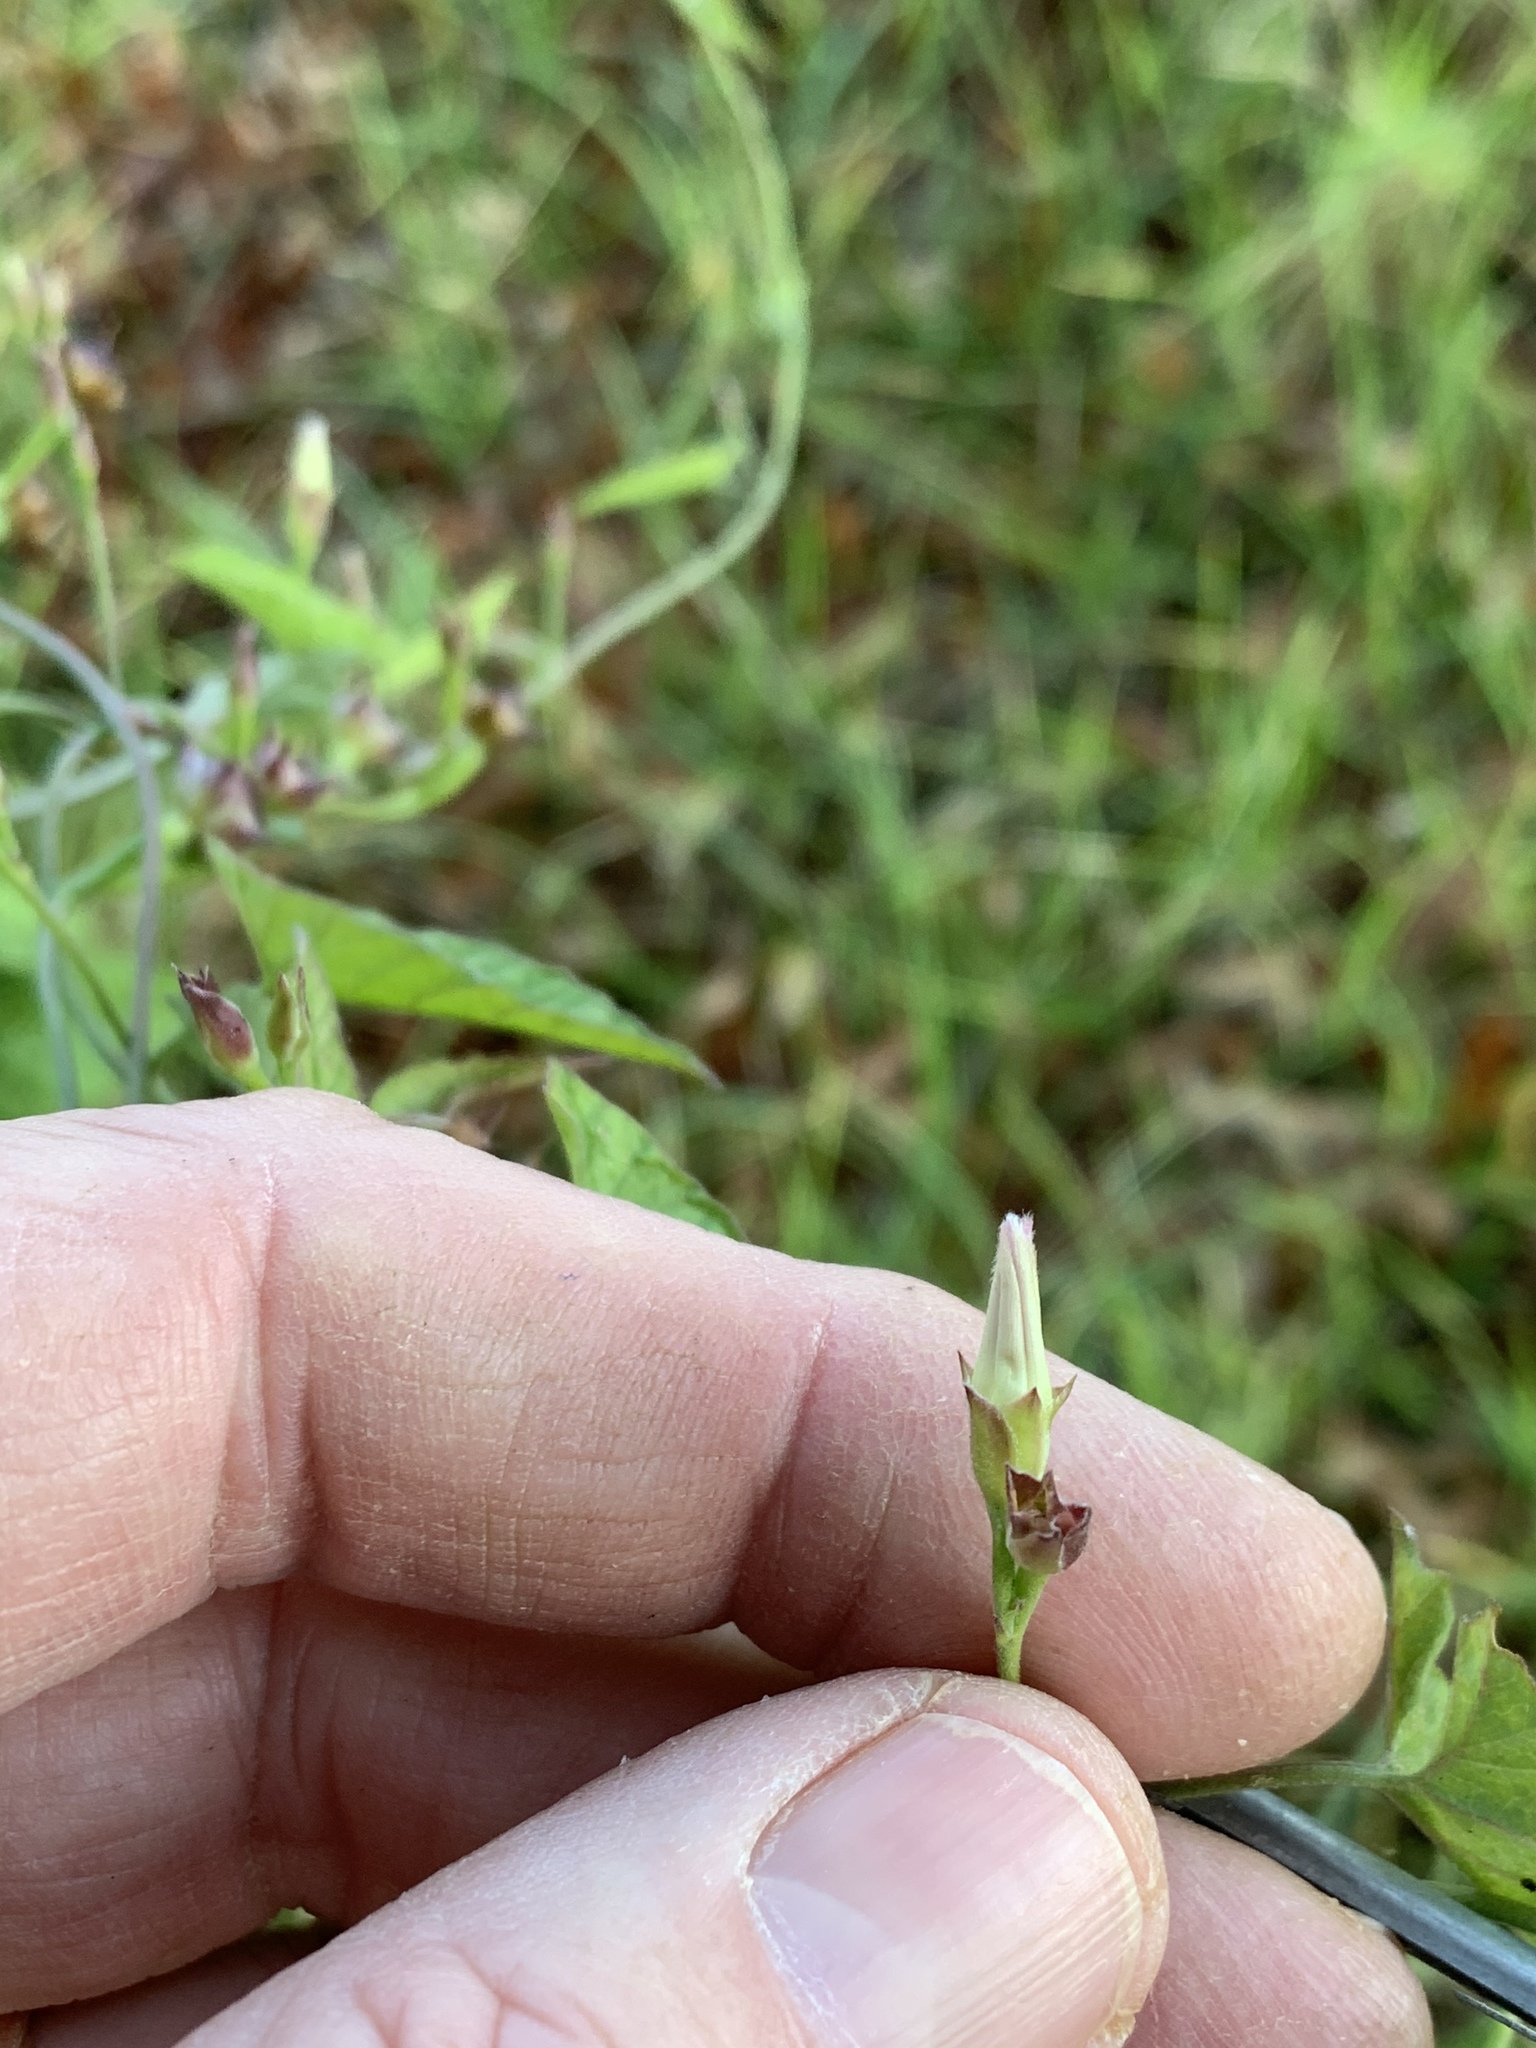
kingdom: Plantae
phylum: Tracheophyta
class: Magnoliopsida
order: Solanales
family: Convolvulaceae
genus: Convolvulus
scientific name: Convolvulus farinosus
